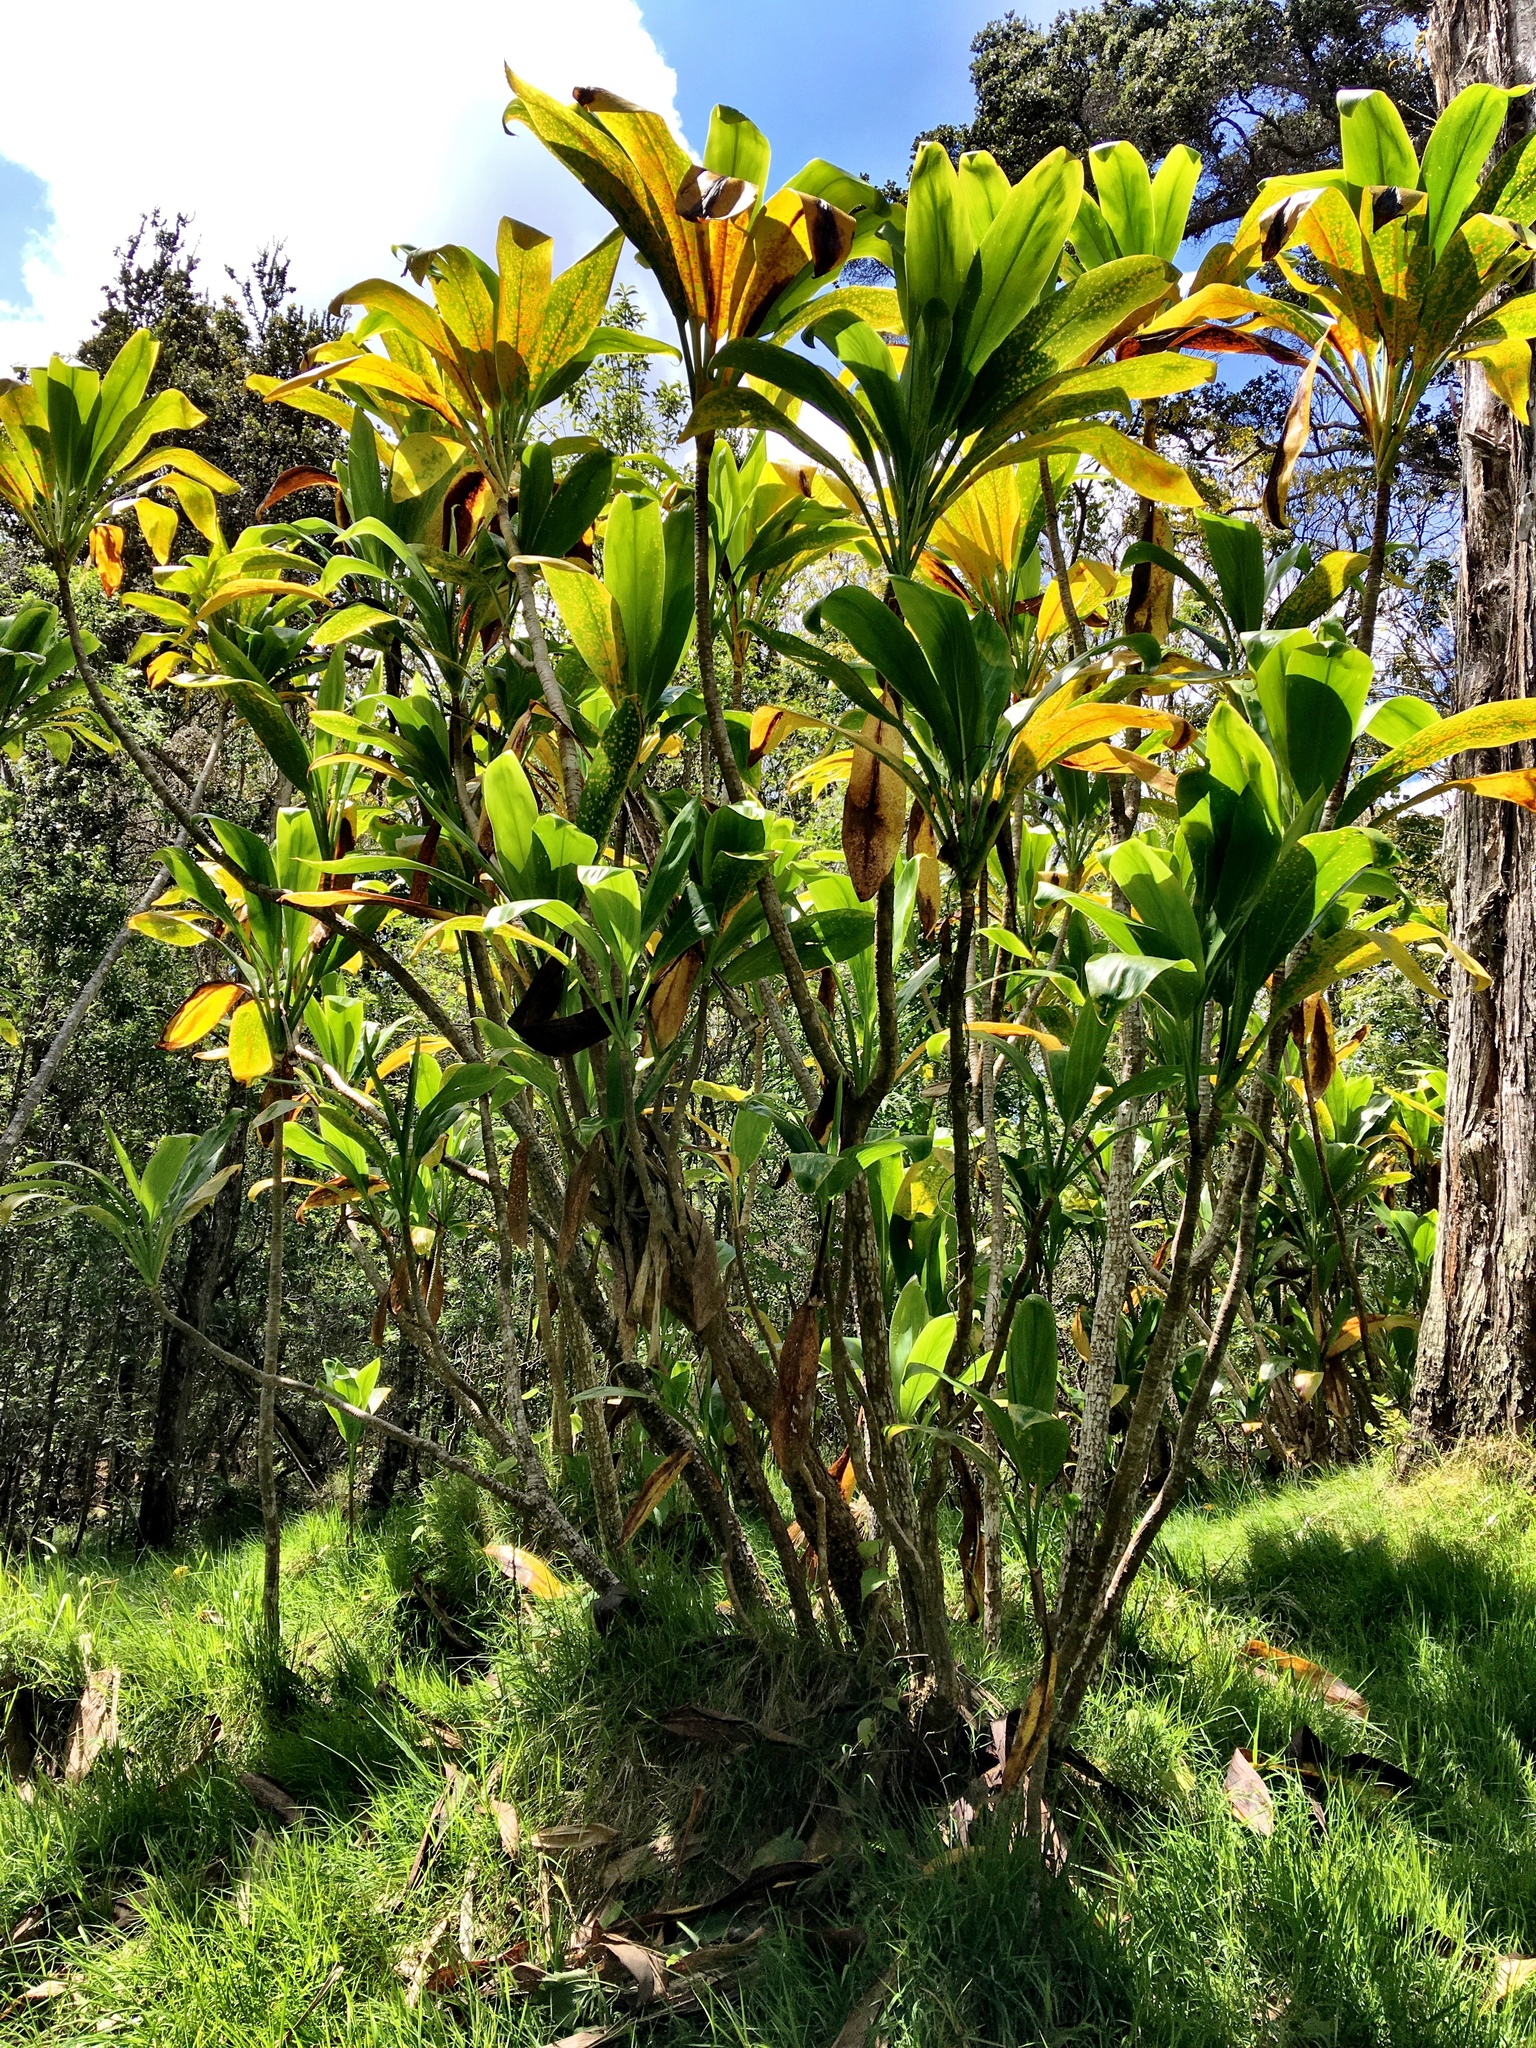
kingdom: Plantae
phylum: Tracheophyta
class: Liliopsida
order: Asparagales
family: Asparagaceae
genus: Cordyline
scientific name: Cordyline fruticosa
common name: Good-luck-plant
